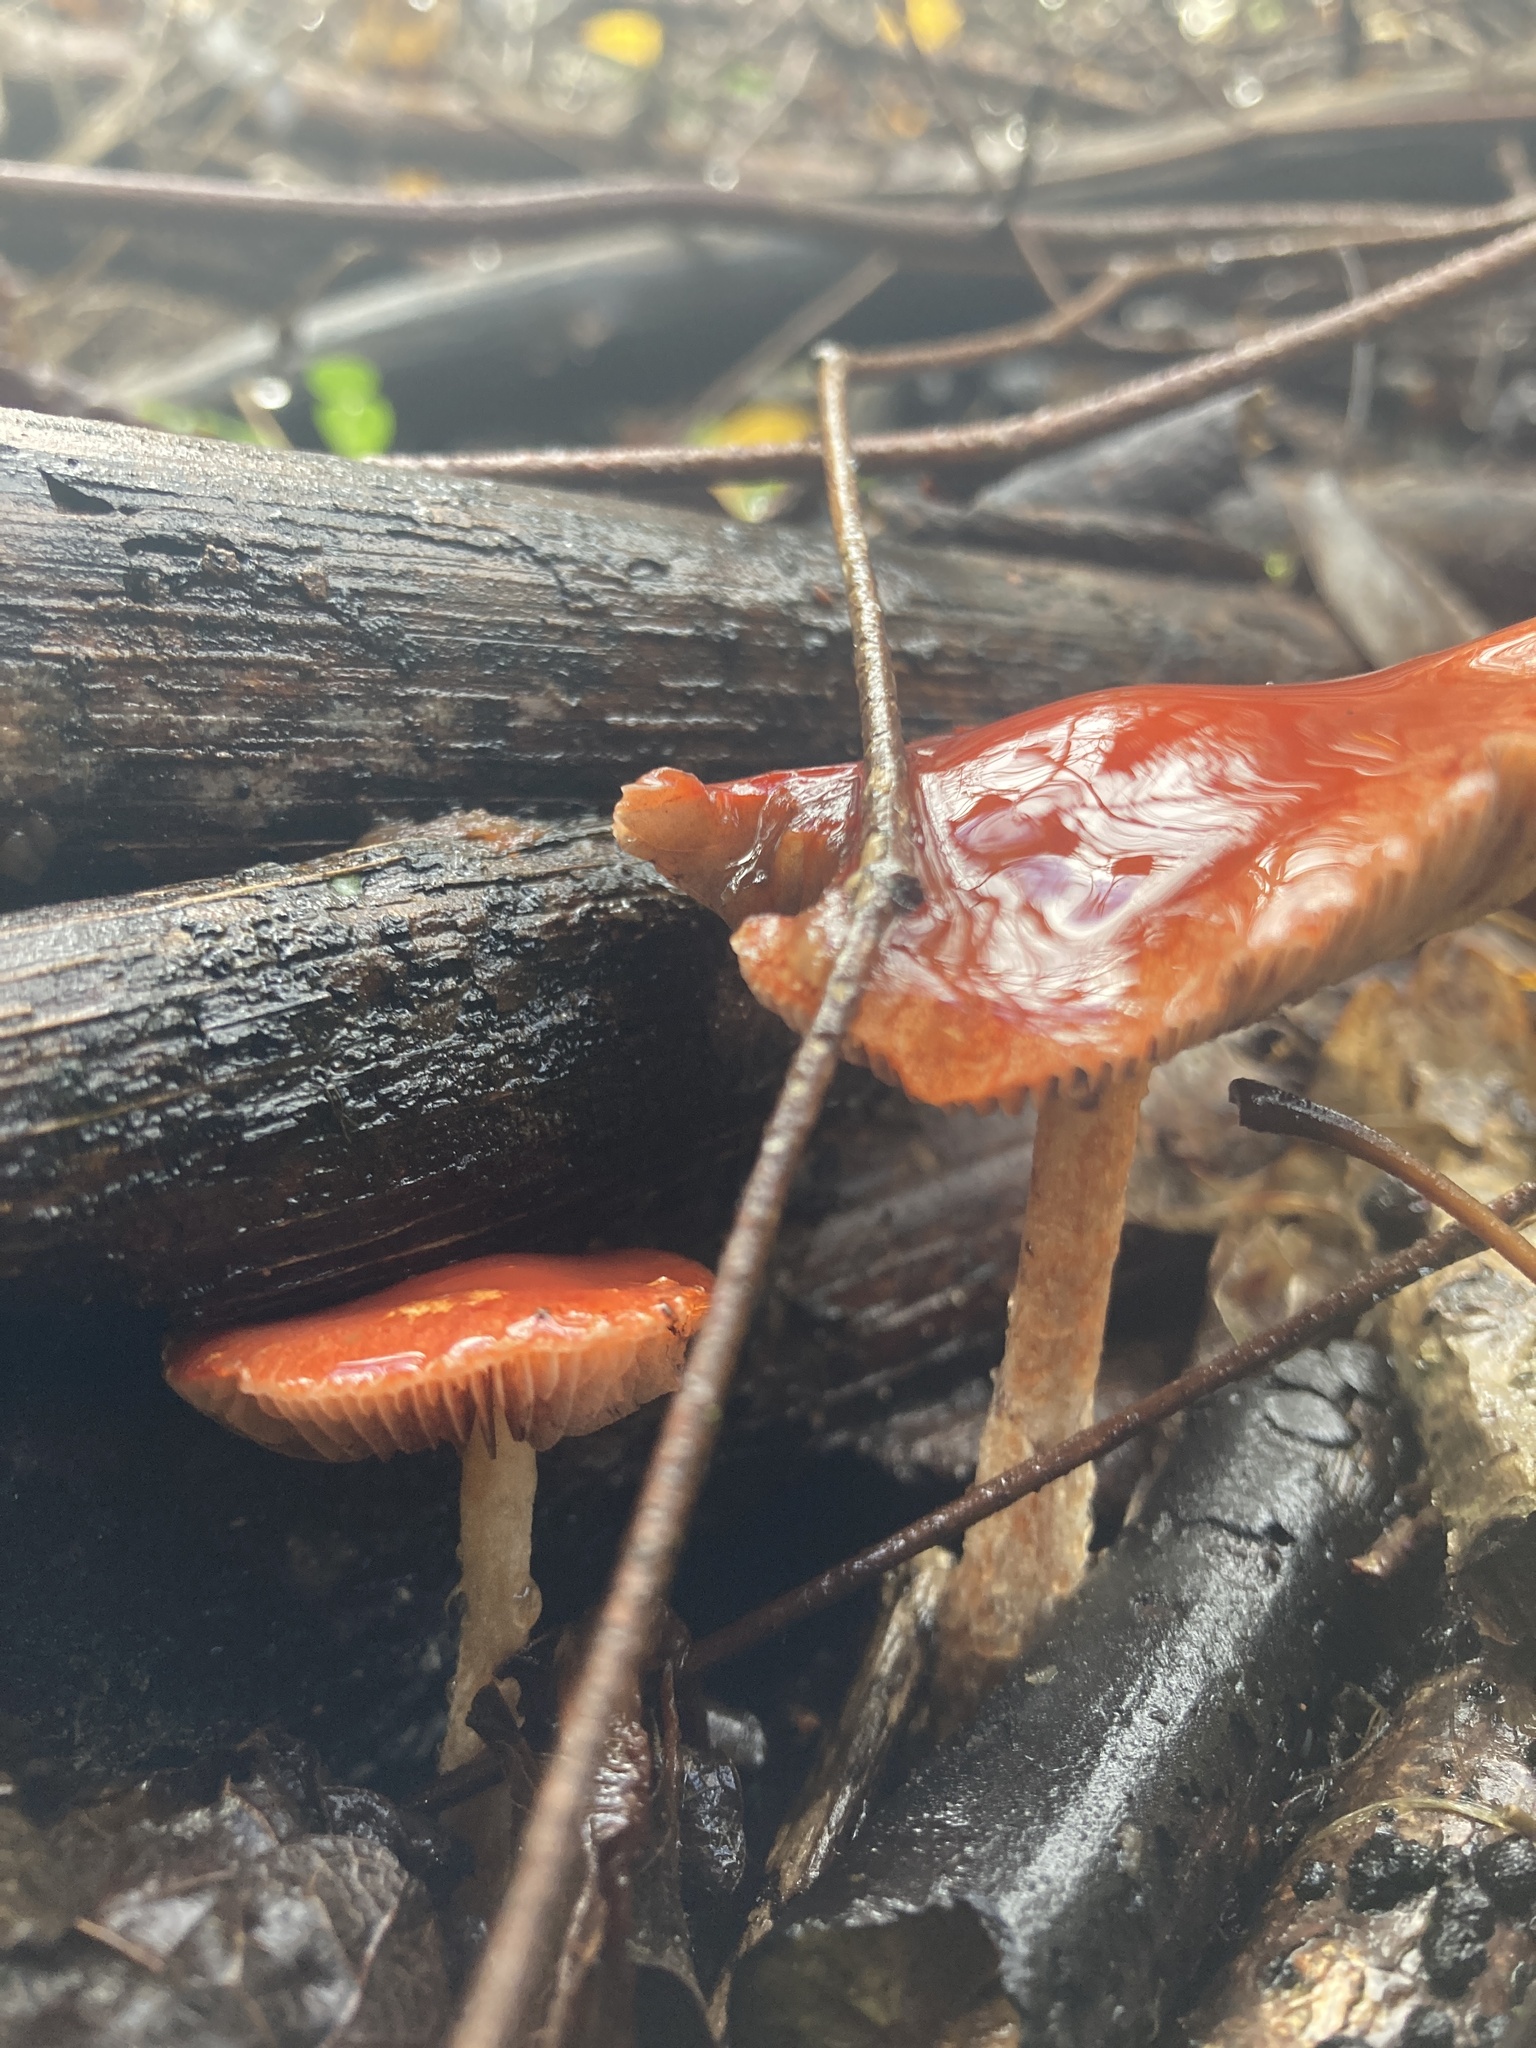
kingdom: Fungi
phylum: Basidiomycota
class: Agaricomycetes
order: Agaricales
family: Strophariaceae
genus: Leratiomyces
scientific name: Leratiomyces ceres
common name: Redlead roundhead
